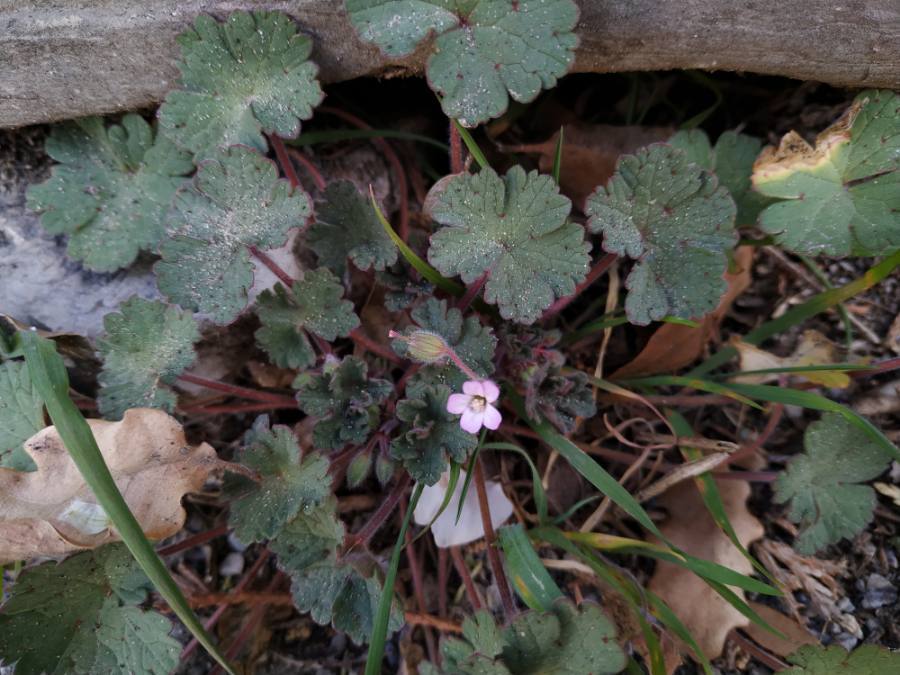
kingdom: Plantae
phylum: Tracheophyta
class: Magnoliopsida
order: Geraniales
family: Geraniaceae
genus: Geranium
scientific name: Geranium rotundifolium
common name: Round-leaved crane's-bill
